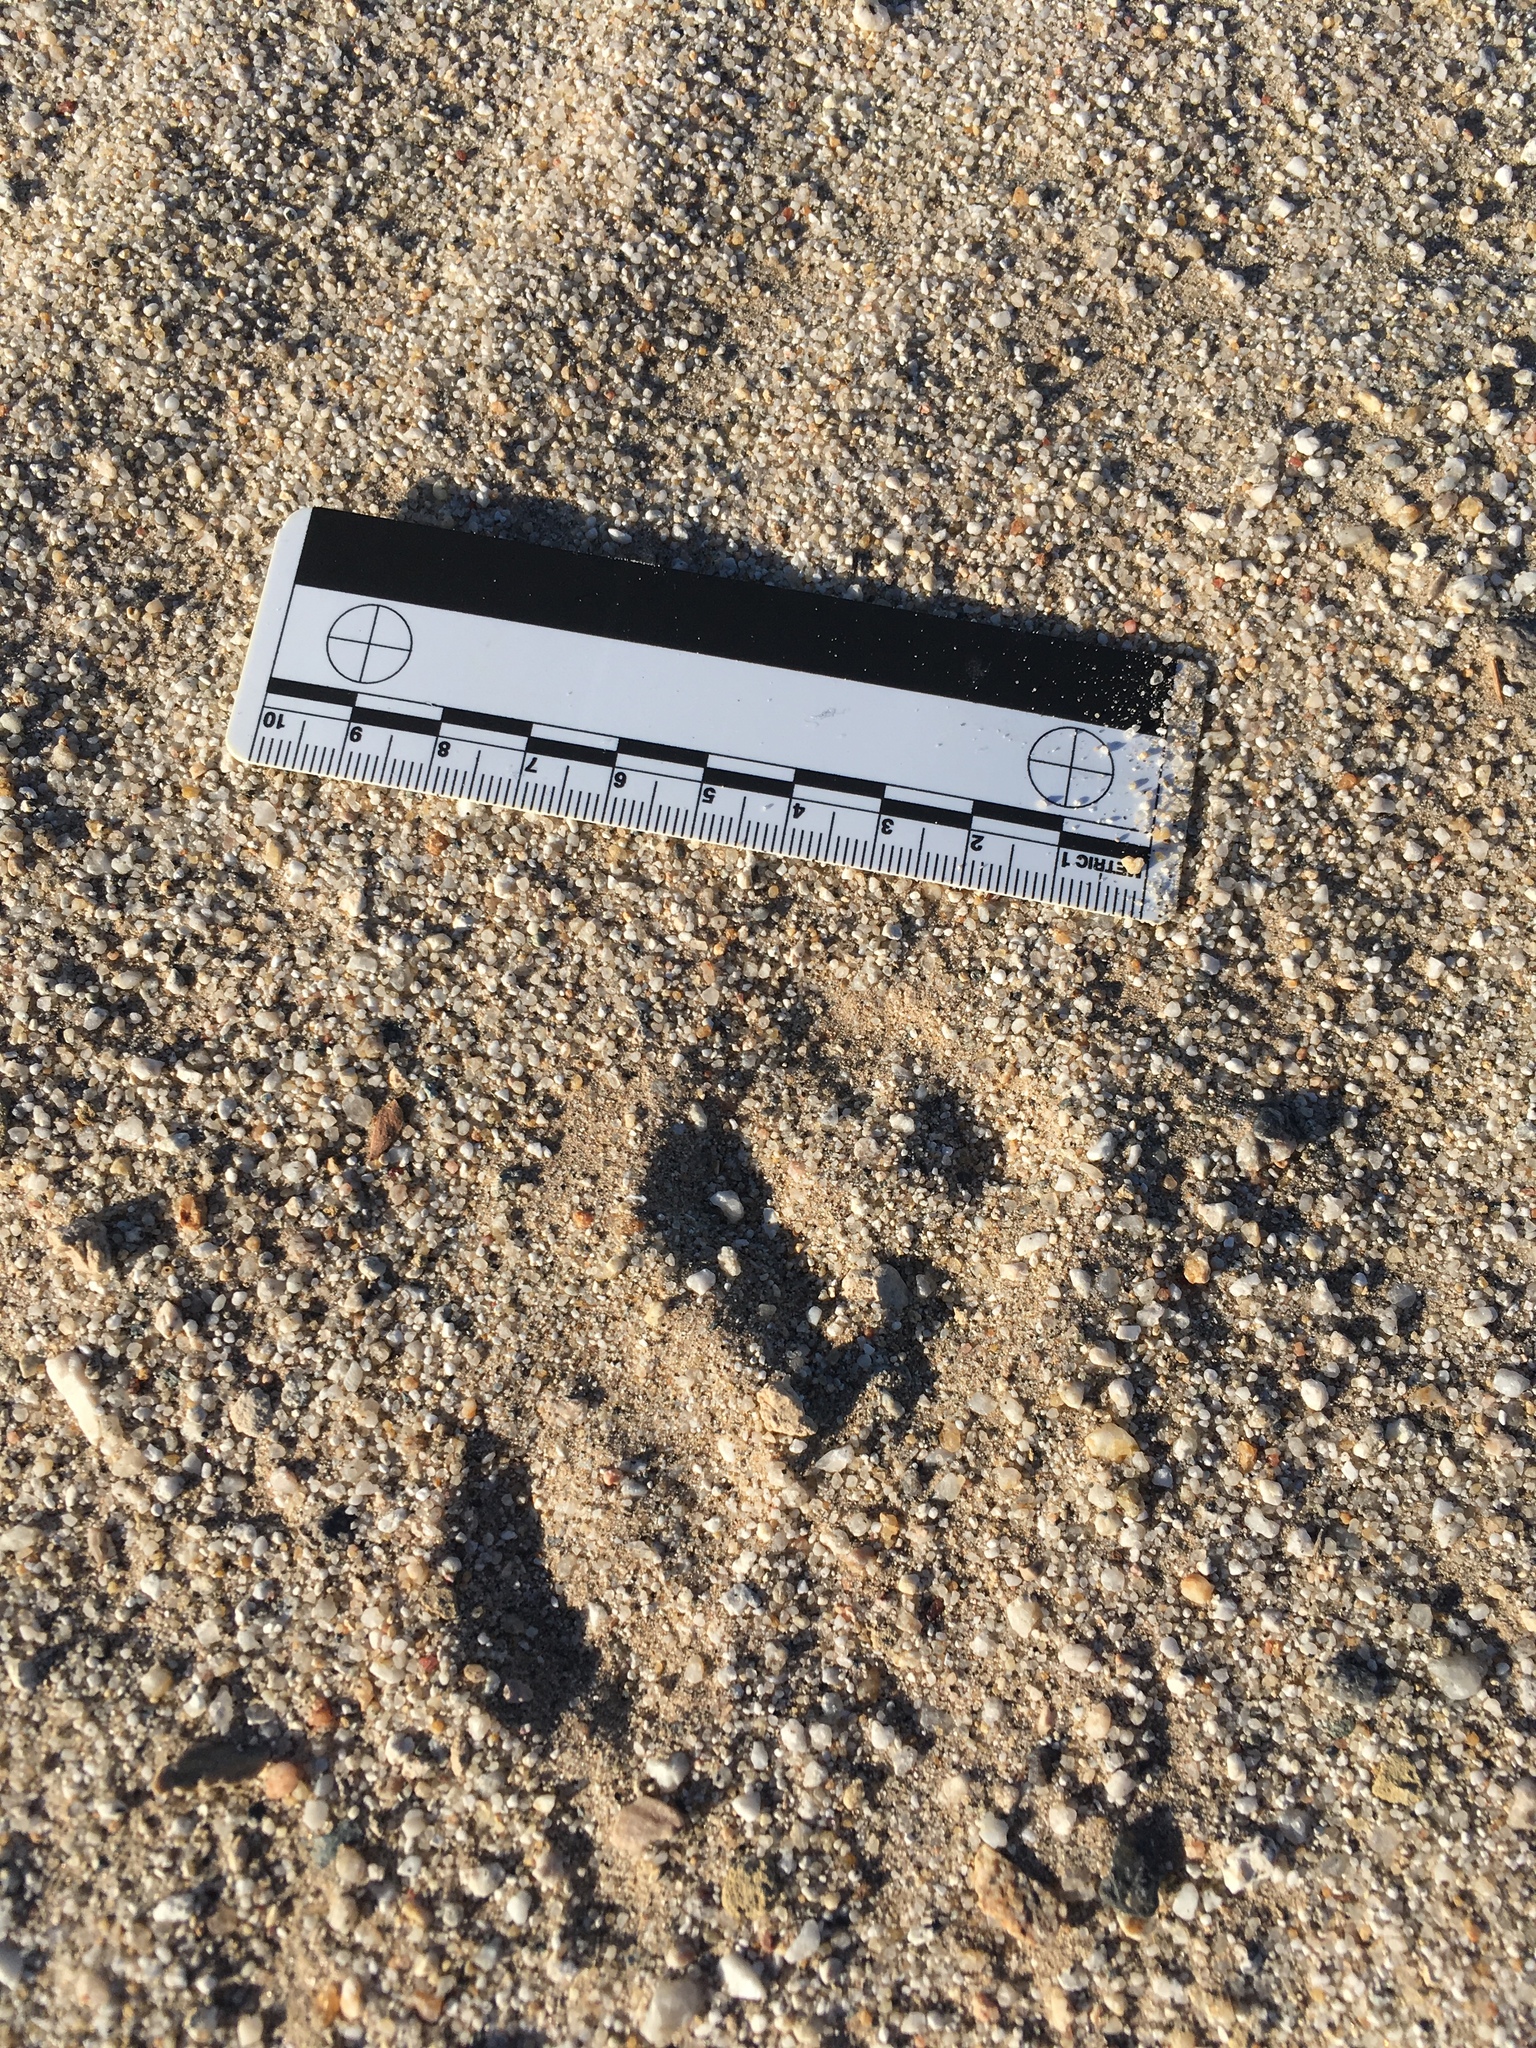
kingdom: Animalia
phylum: Chordata
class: Mammalia
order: Carnivora
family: Canidae
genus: Vulpes
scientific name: Vulpes macrotis
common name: Kit fox
